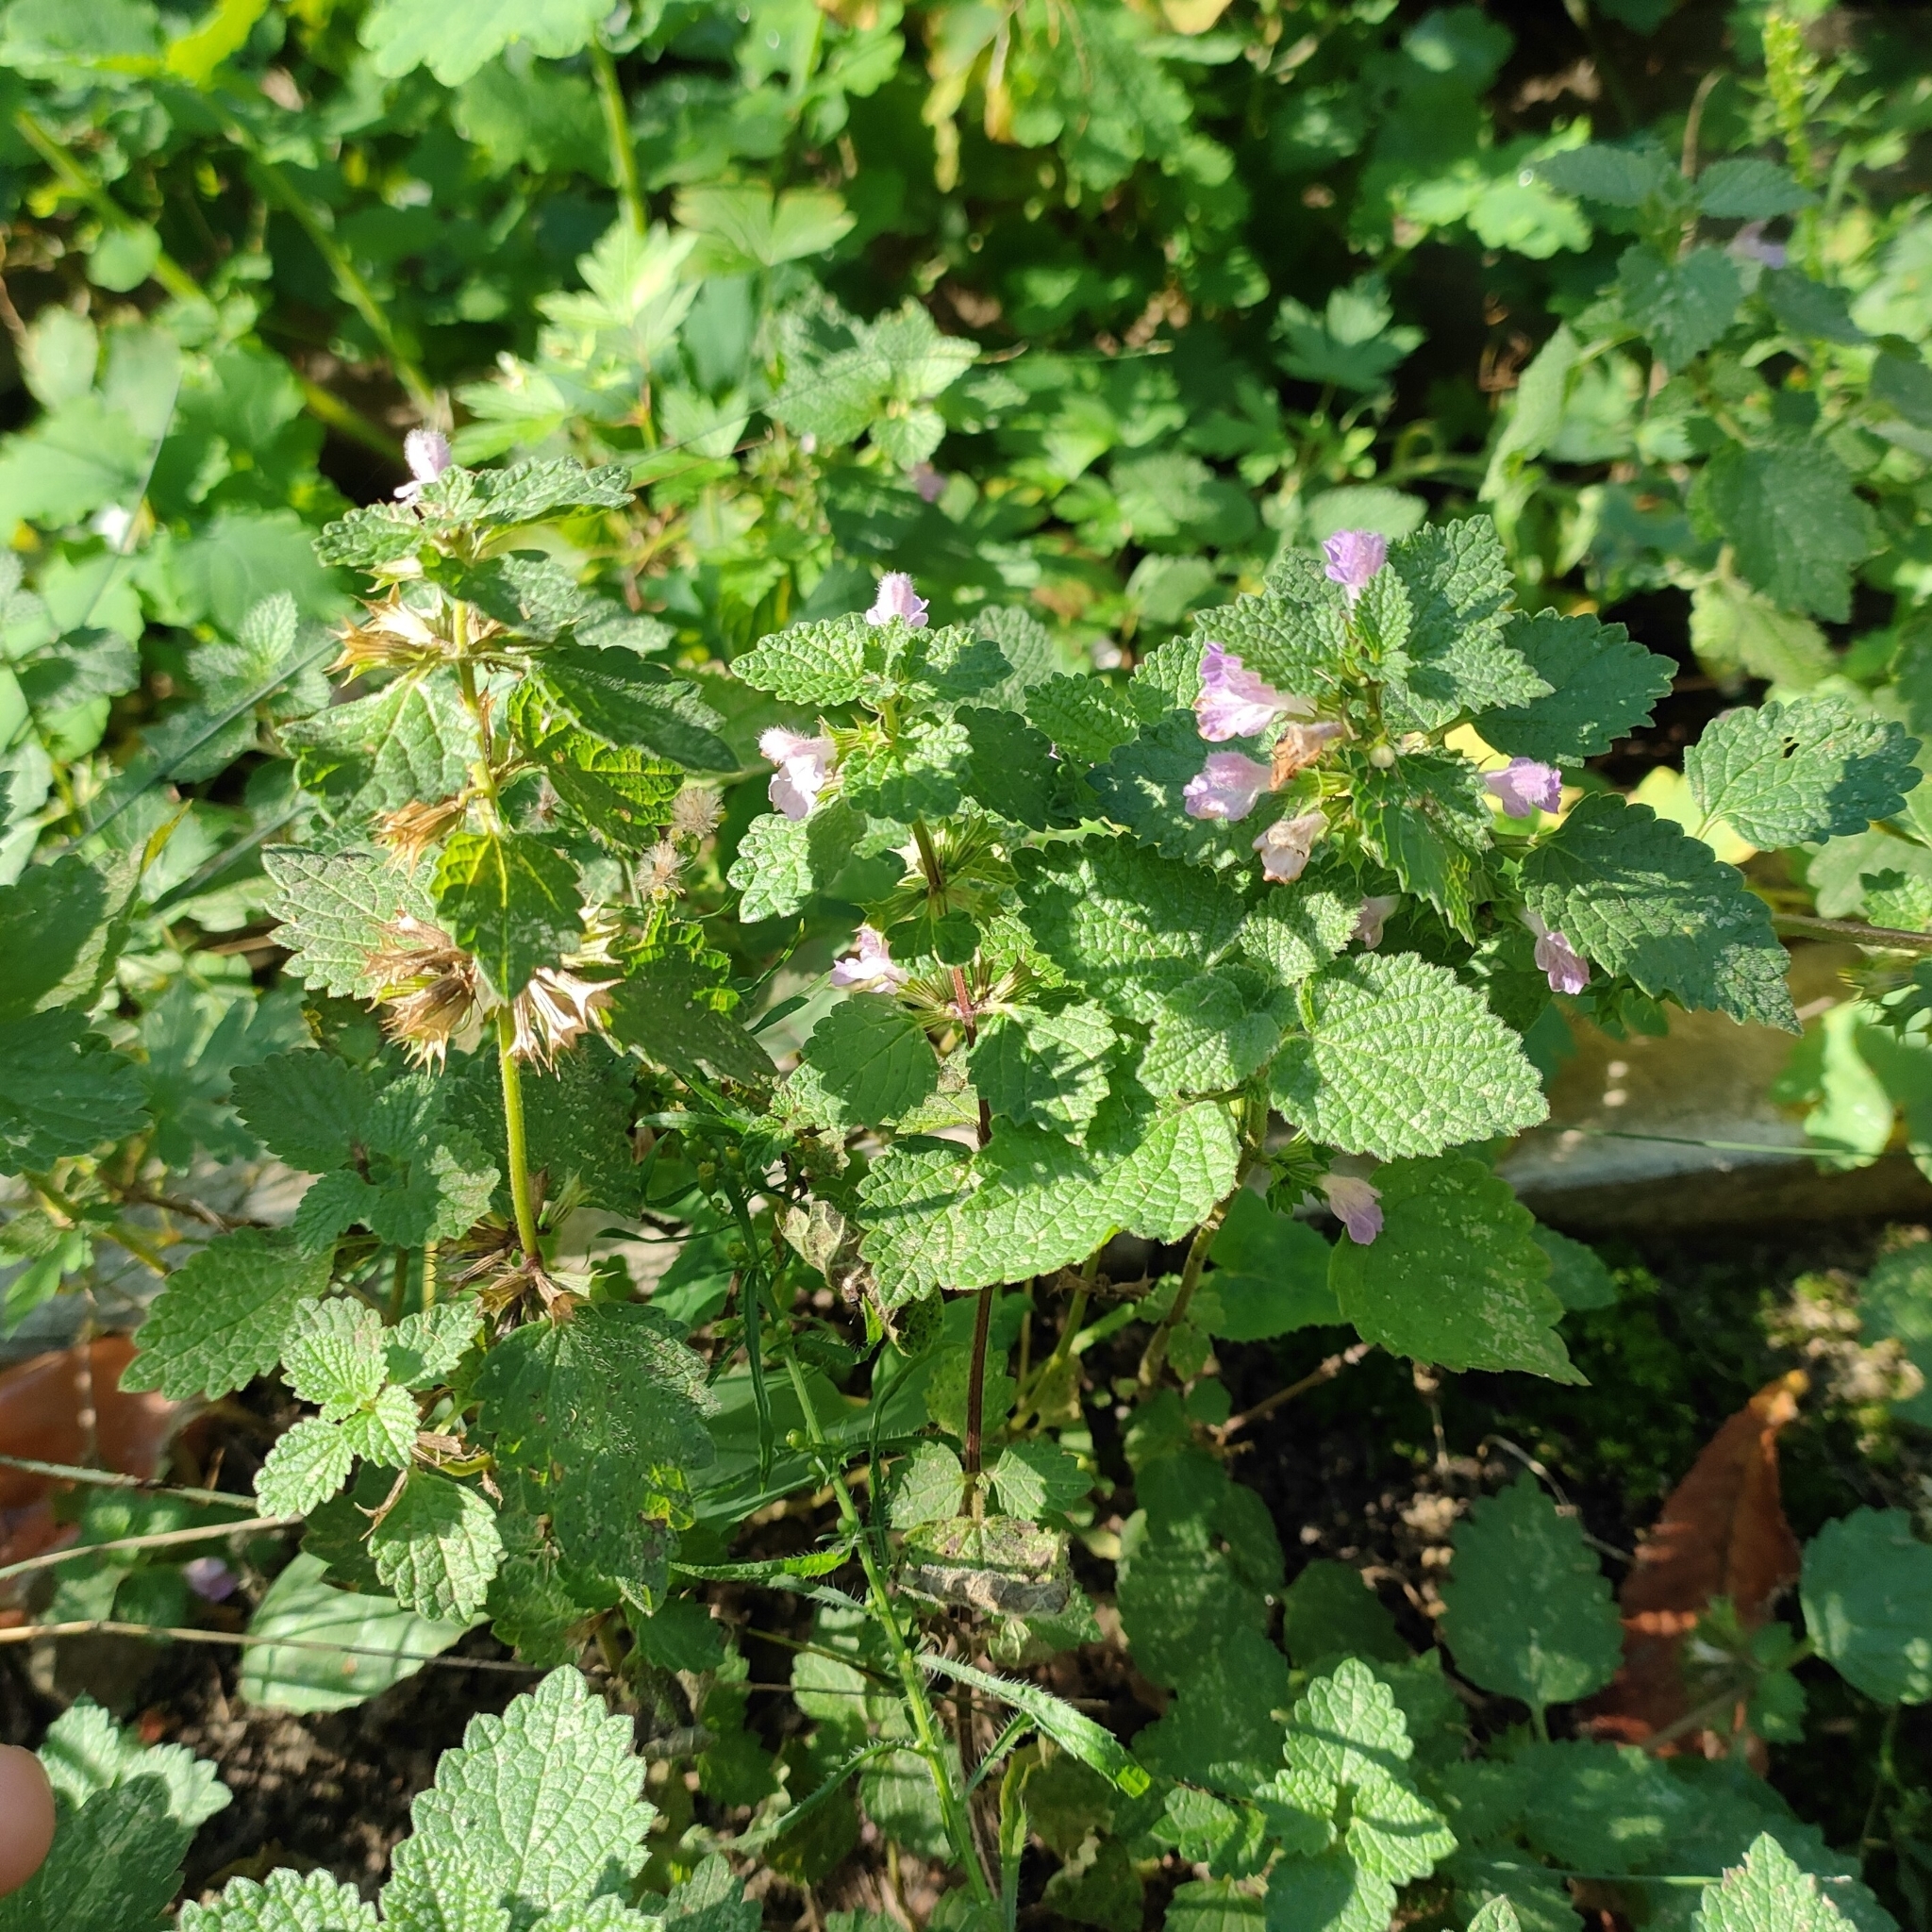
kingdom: Plantae
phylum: Tracheophyta
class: Magnoliopsida
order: Lamiales
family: Lamiaceae
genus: Ballota
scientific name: Ballota nigra
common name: Black horehound
